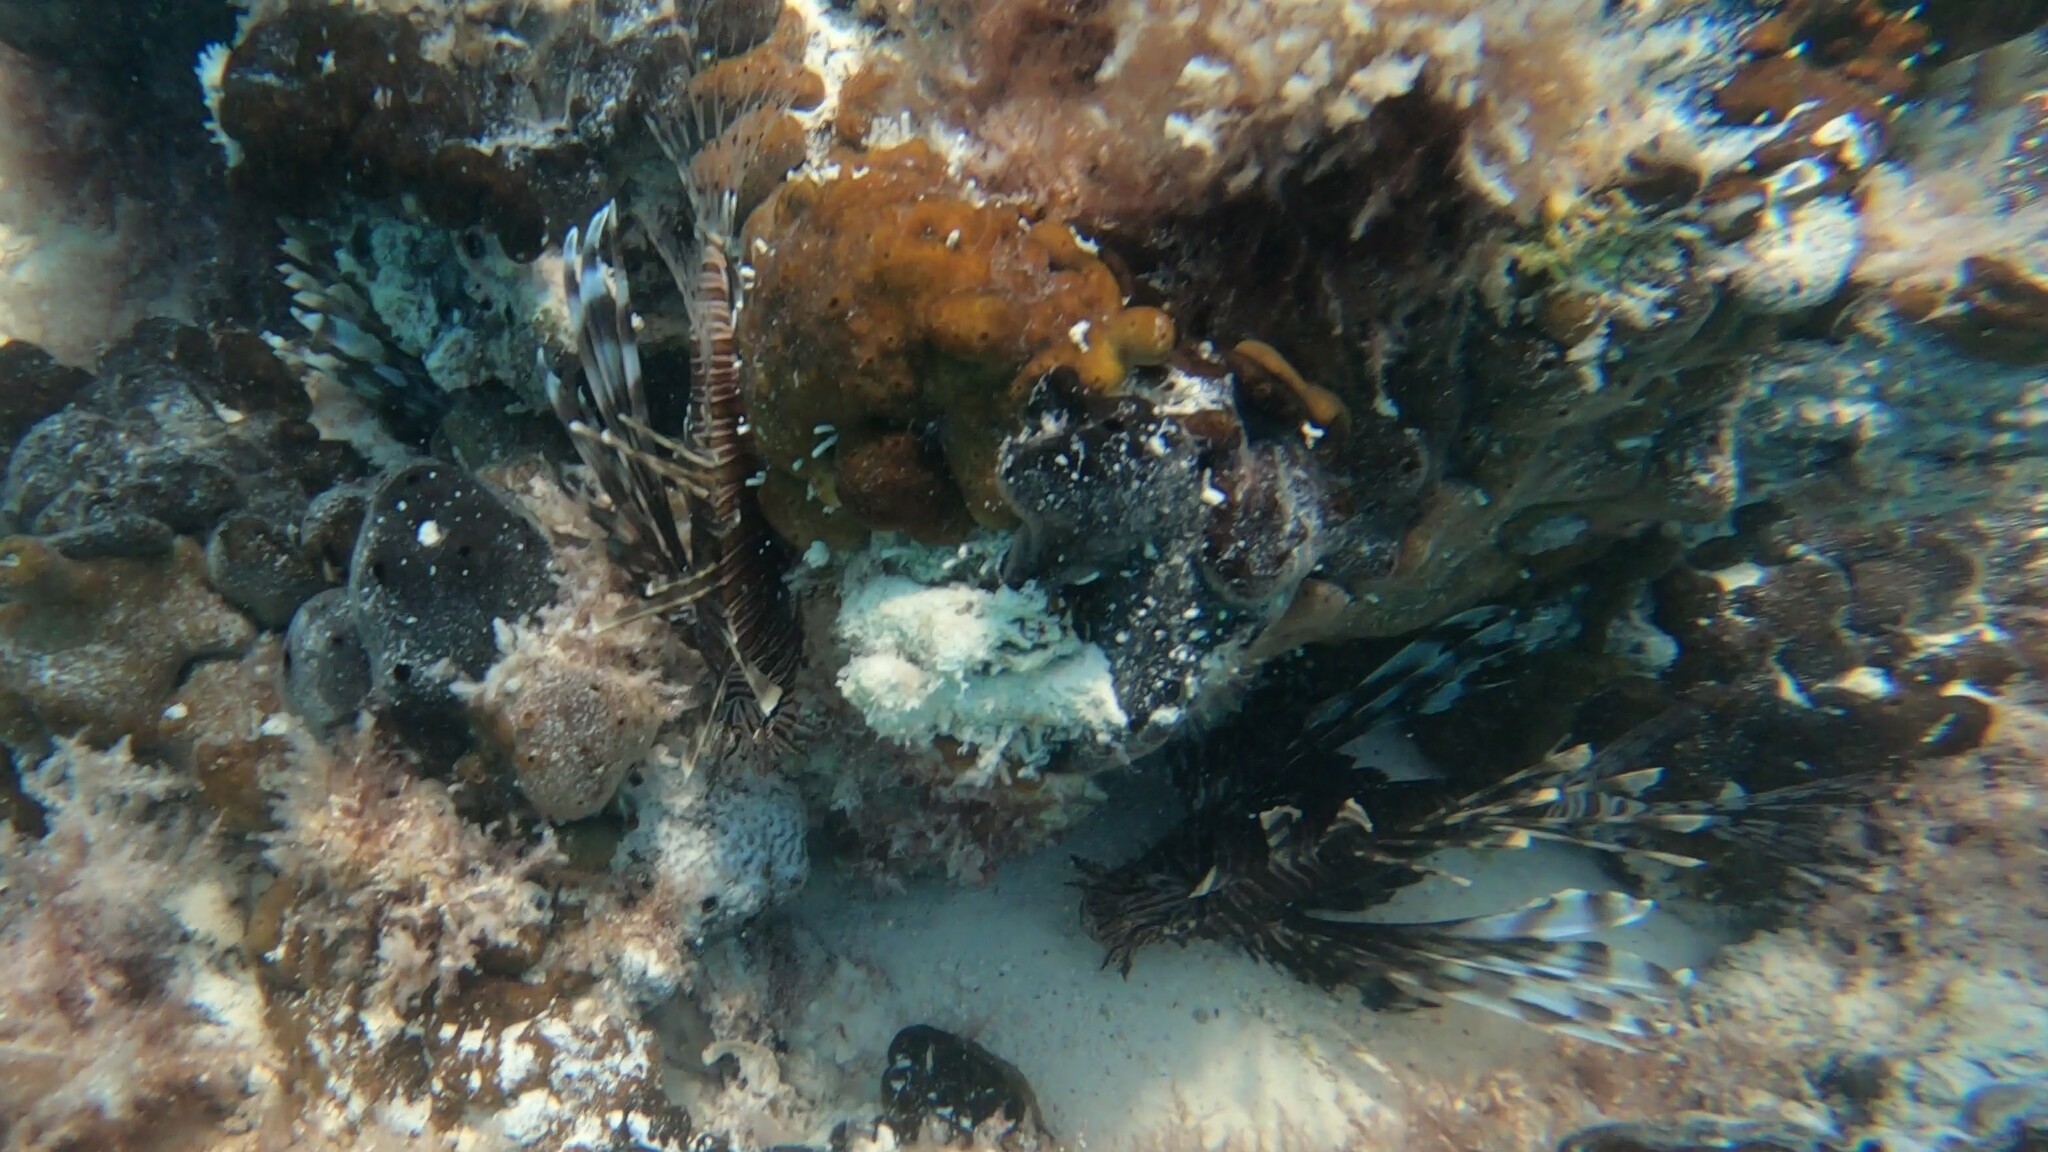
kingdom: Animalia
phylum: Chordata
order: Scorpaeniformes
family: Scorpaenidae
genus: Pterois
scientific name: Pterois volitans
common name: Lionfish
